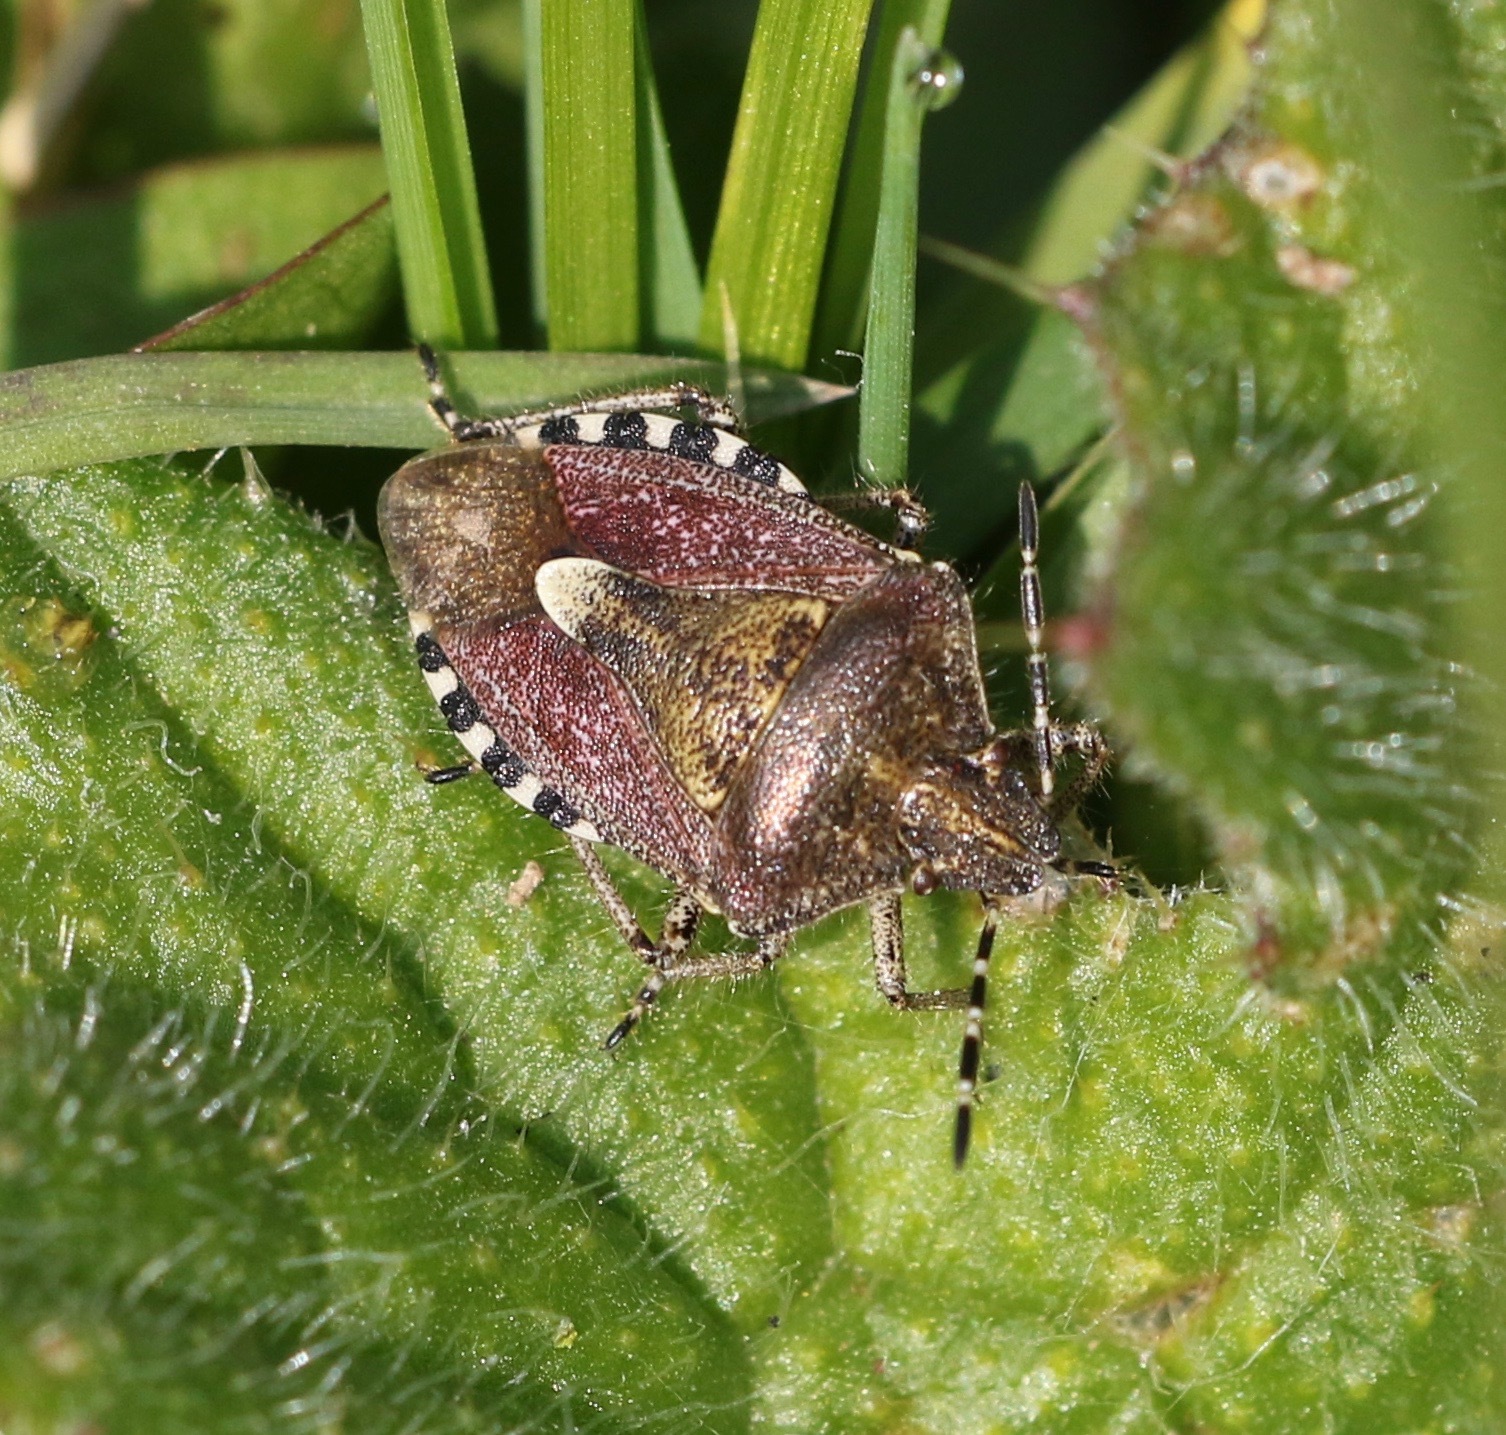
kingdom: Animalia
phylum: Arthropoda
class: Insecta
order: Hemiptera
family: Pentatomidae
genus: Dolycoris
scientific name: Dolycoris baccarum
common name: Sloe bug
